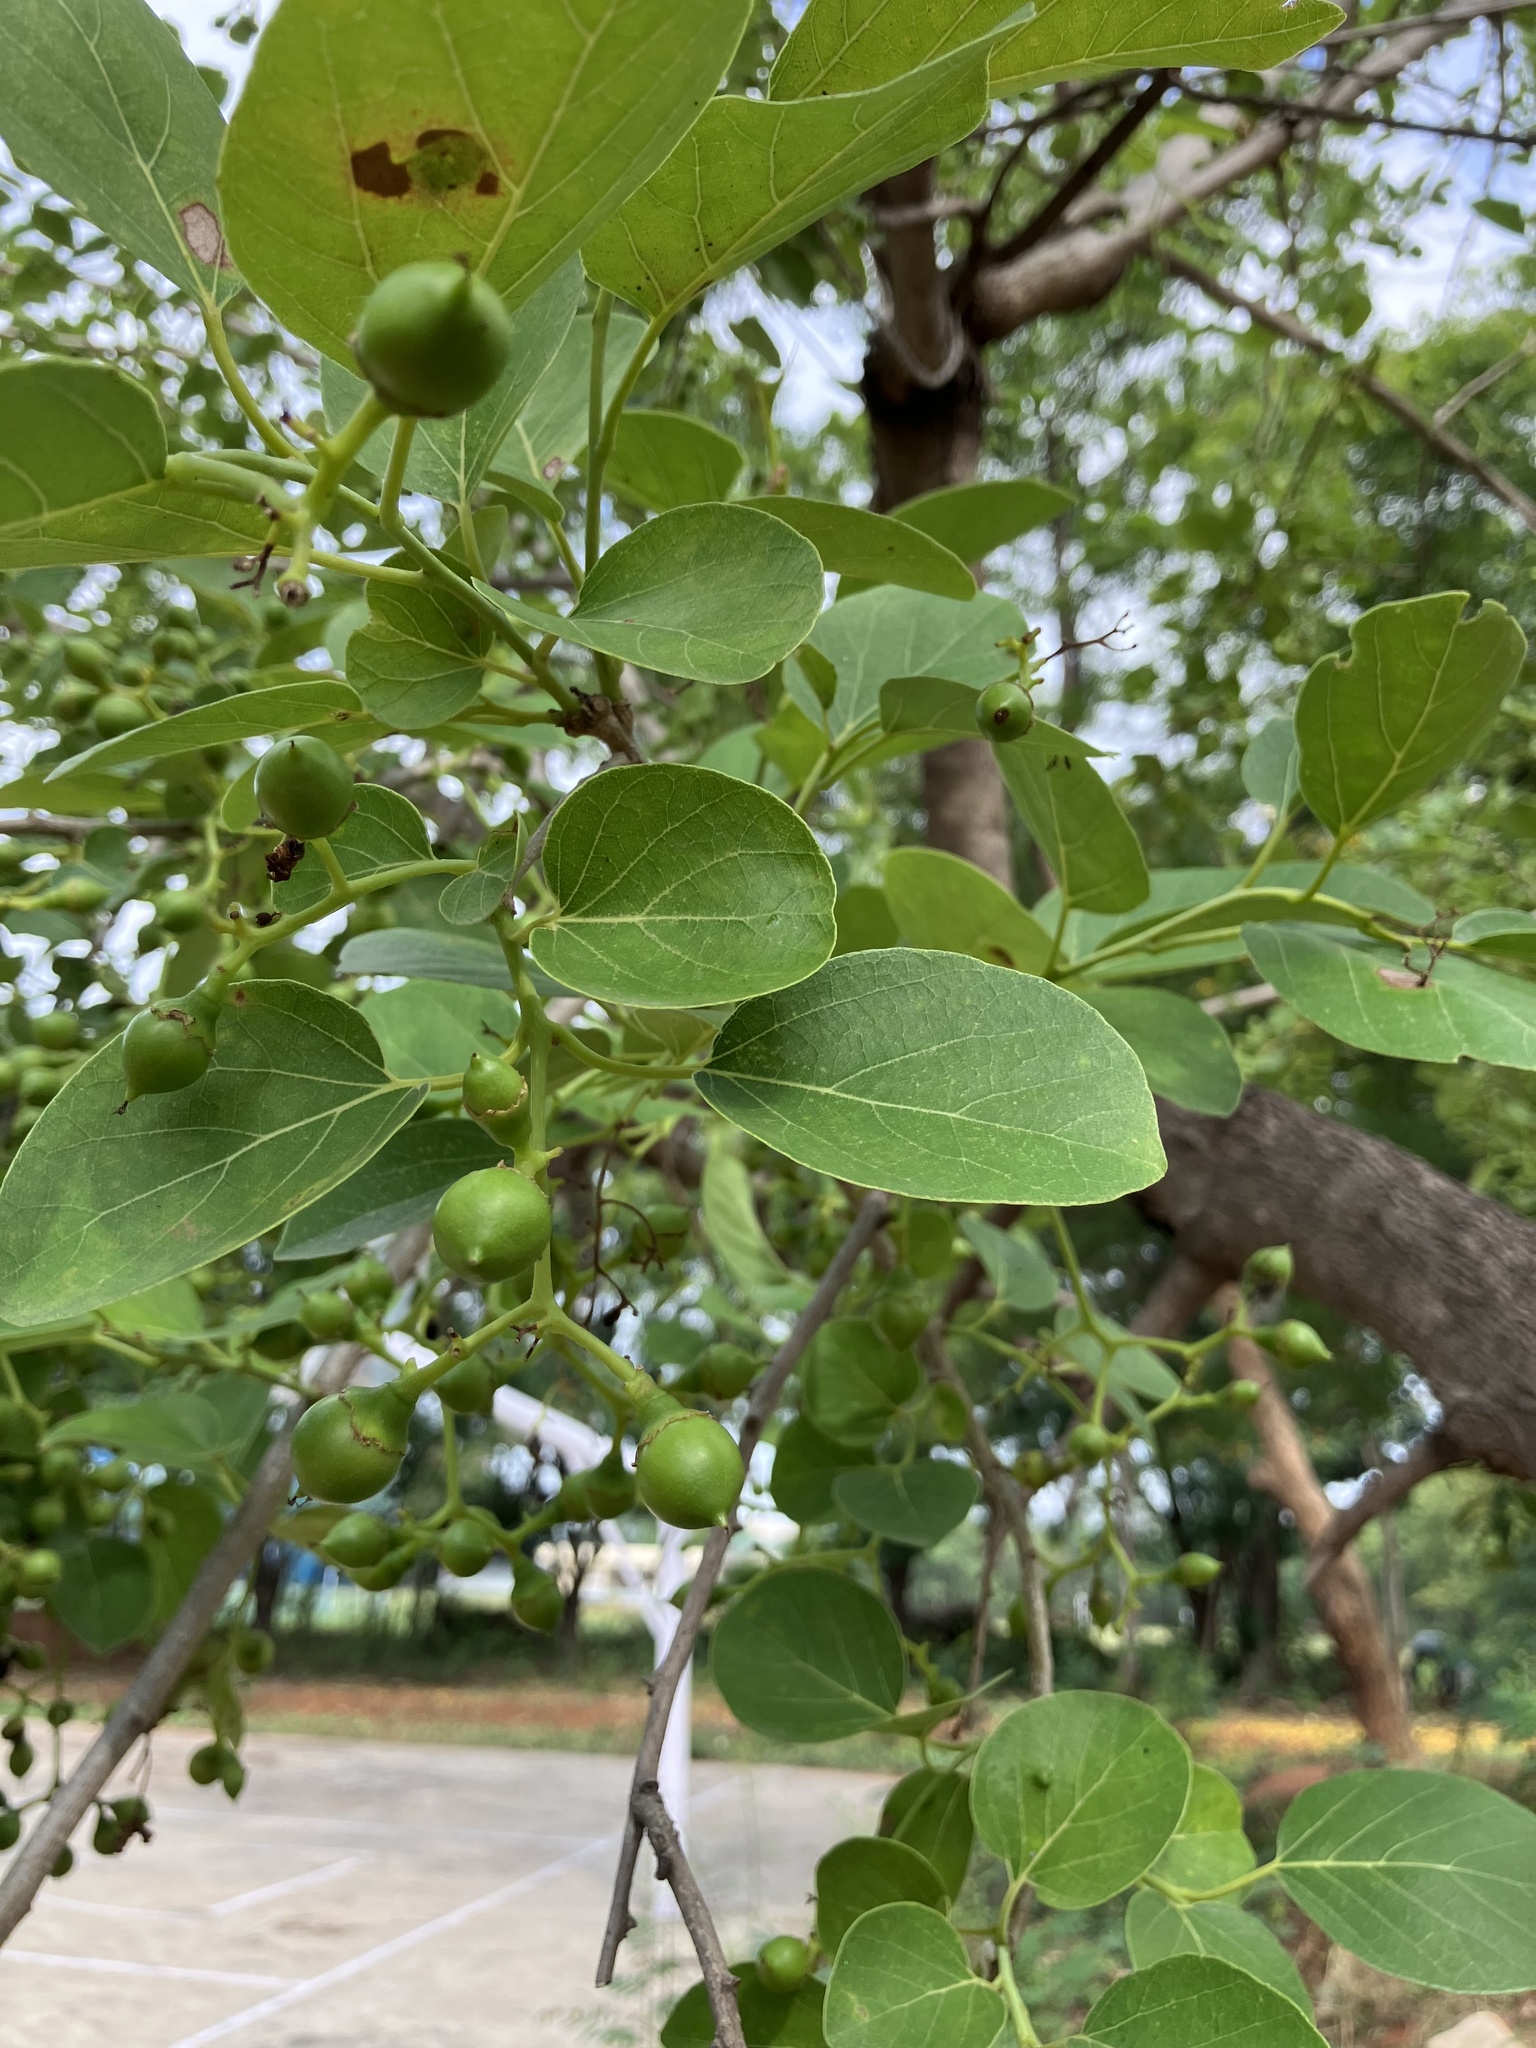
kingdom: Plantae
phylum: Tracheophyta
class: Magnoliopsida
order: Boraginales
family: Cordiaceae
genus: Cordia
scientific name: Cordia dichotoma
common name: Fragrant manjack
